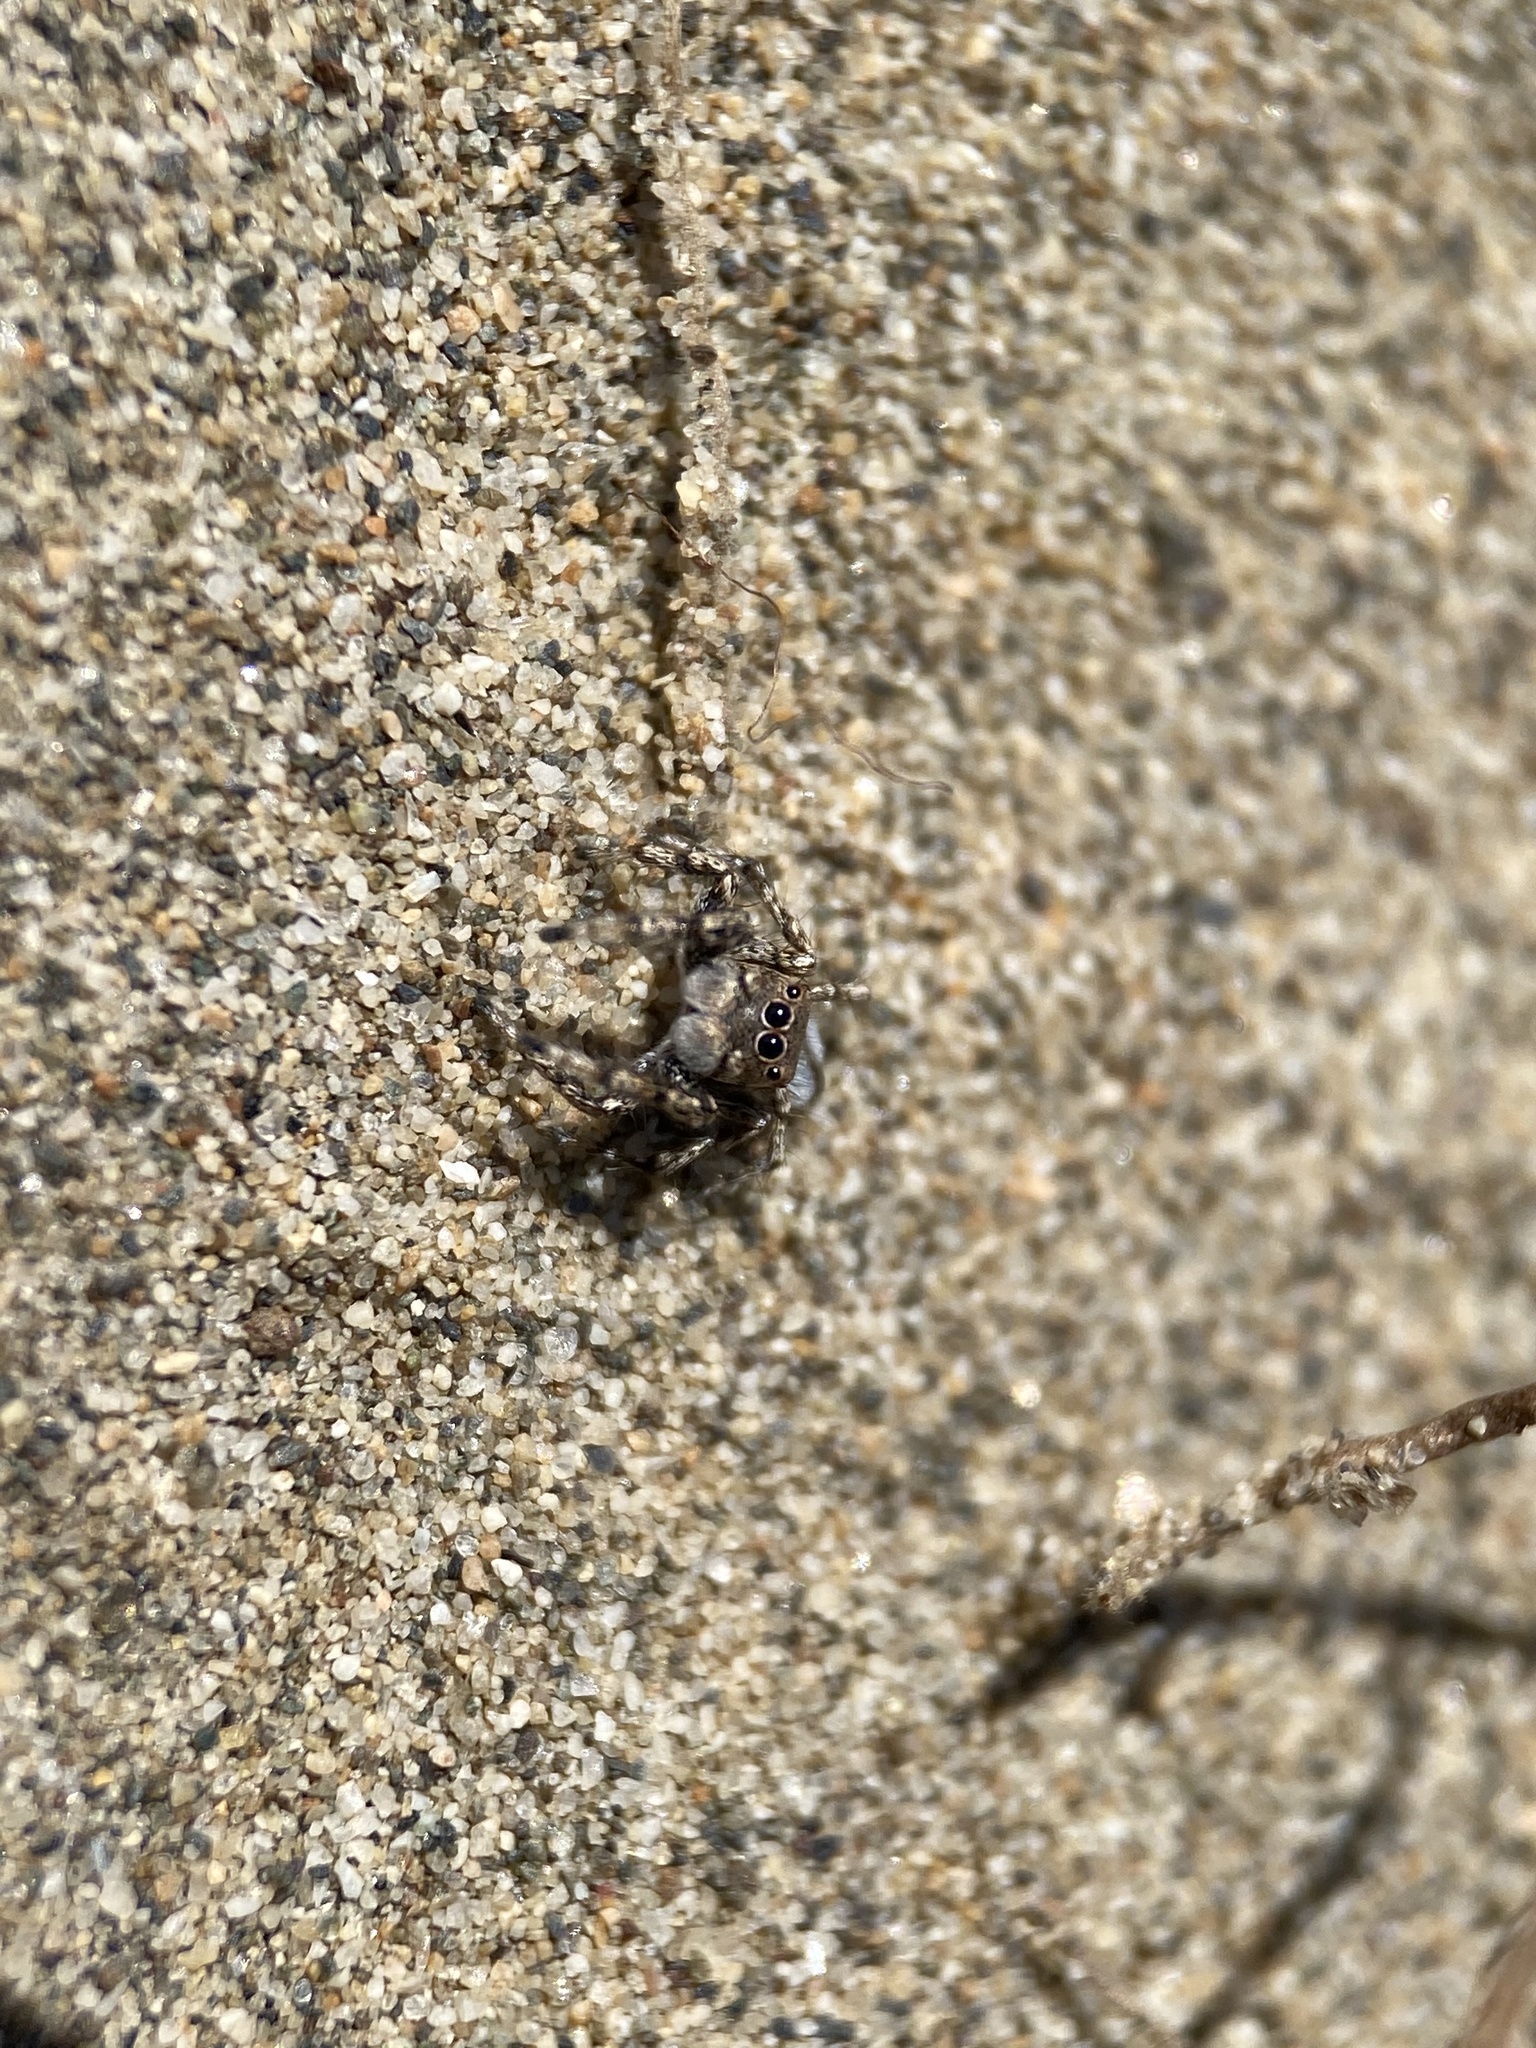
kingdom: Animalia
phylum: Arthropoda
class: Arachnida
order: Araneae
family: Salticidae
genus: Habronattus
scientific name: Habronattus amicus
